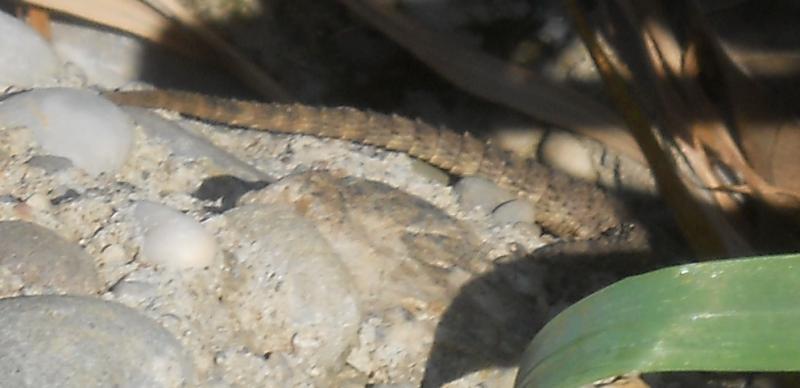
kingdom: Animalia
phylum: Chordata
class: Squamata
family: Agamidae
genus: Stellagama
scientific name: Stellagama stellio
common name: Starred agama
